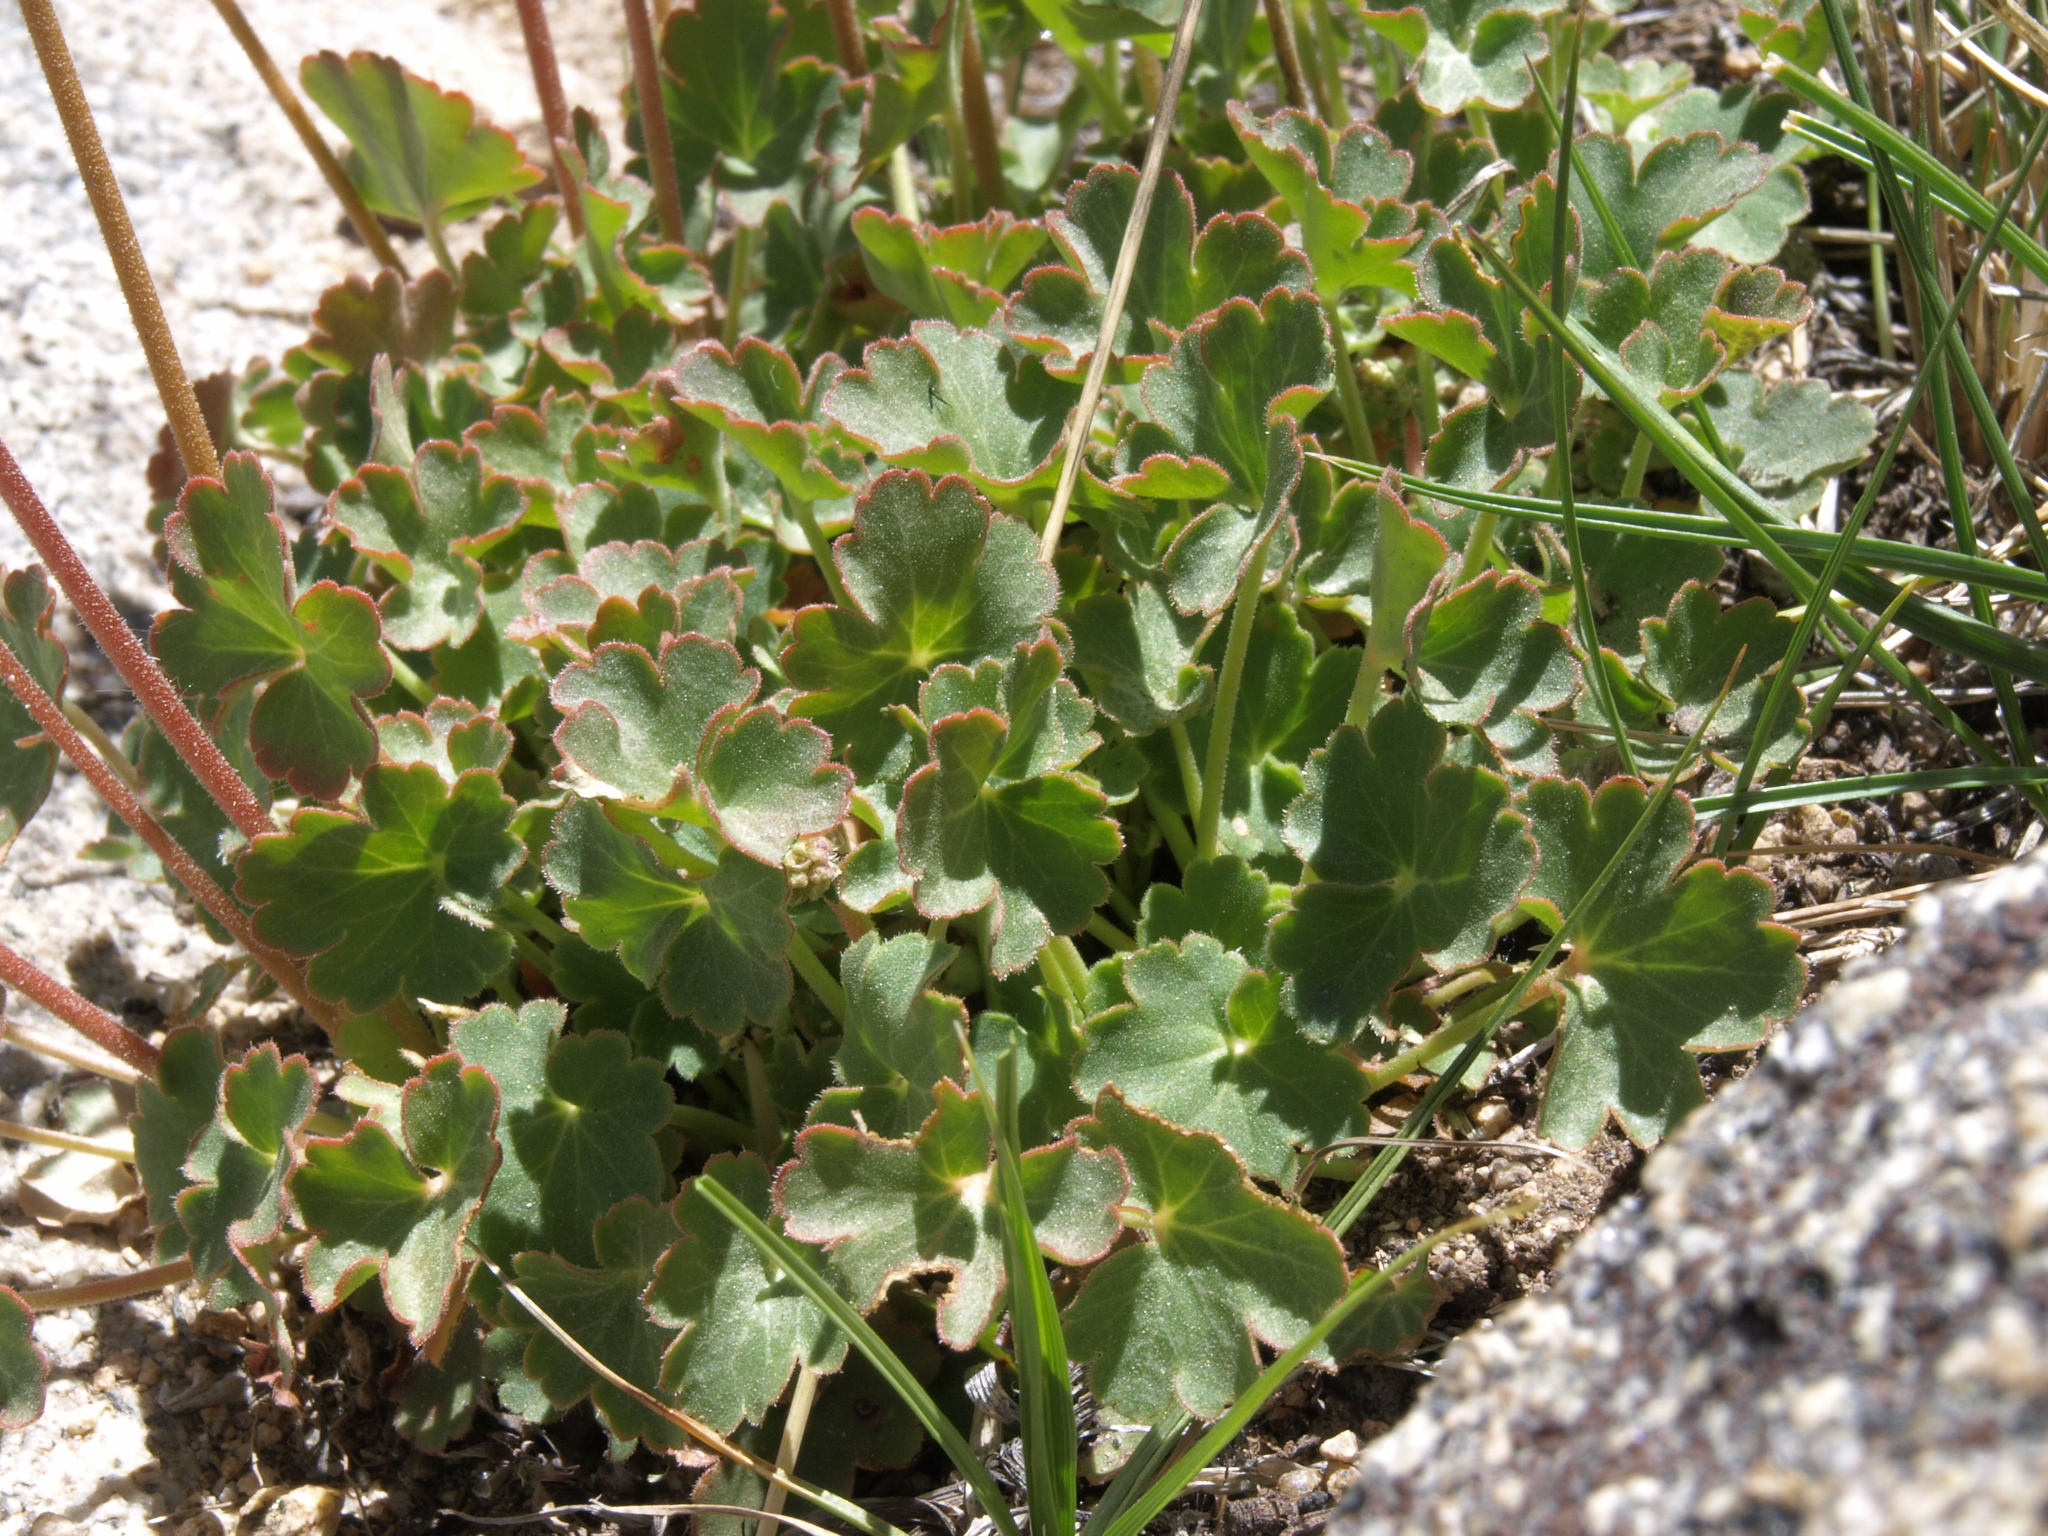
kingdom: Plantae
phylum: Tracheophyta
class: Magnoliopsida
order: Saxifragales
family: Saxifragaceae
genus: Heuchera
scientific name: Heuchera parvifolia
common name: Common alumroot
